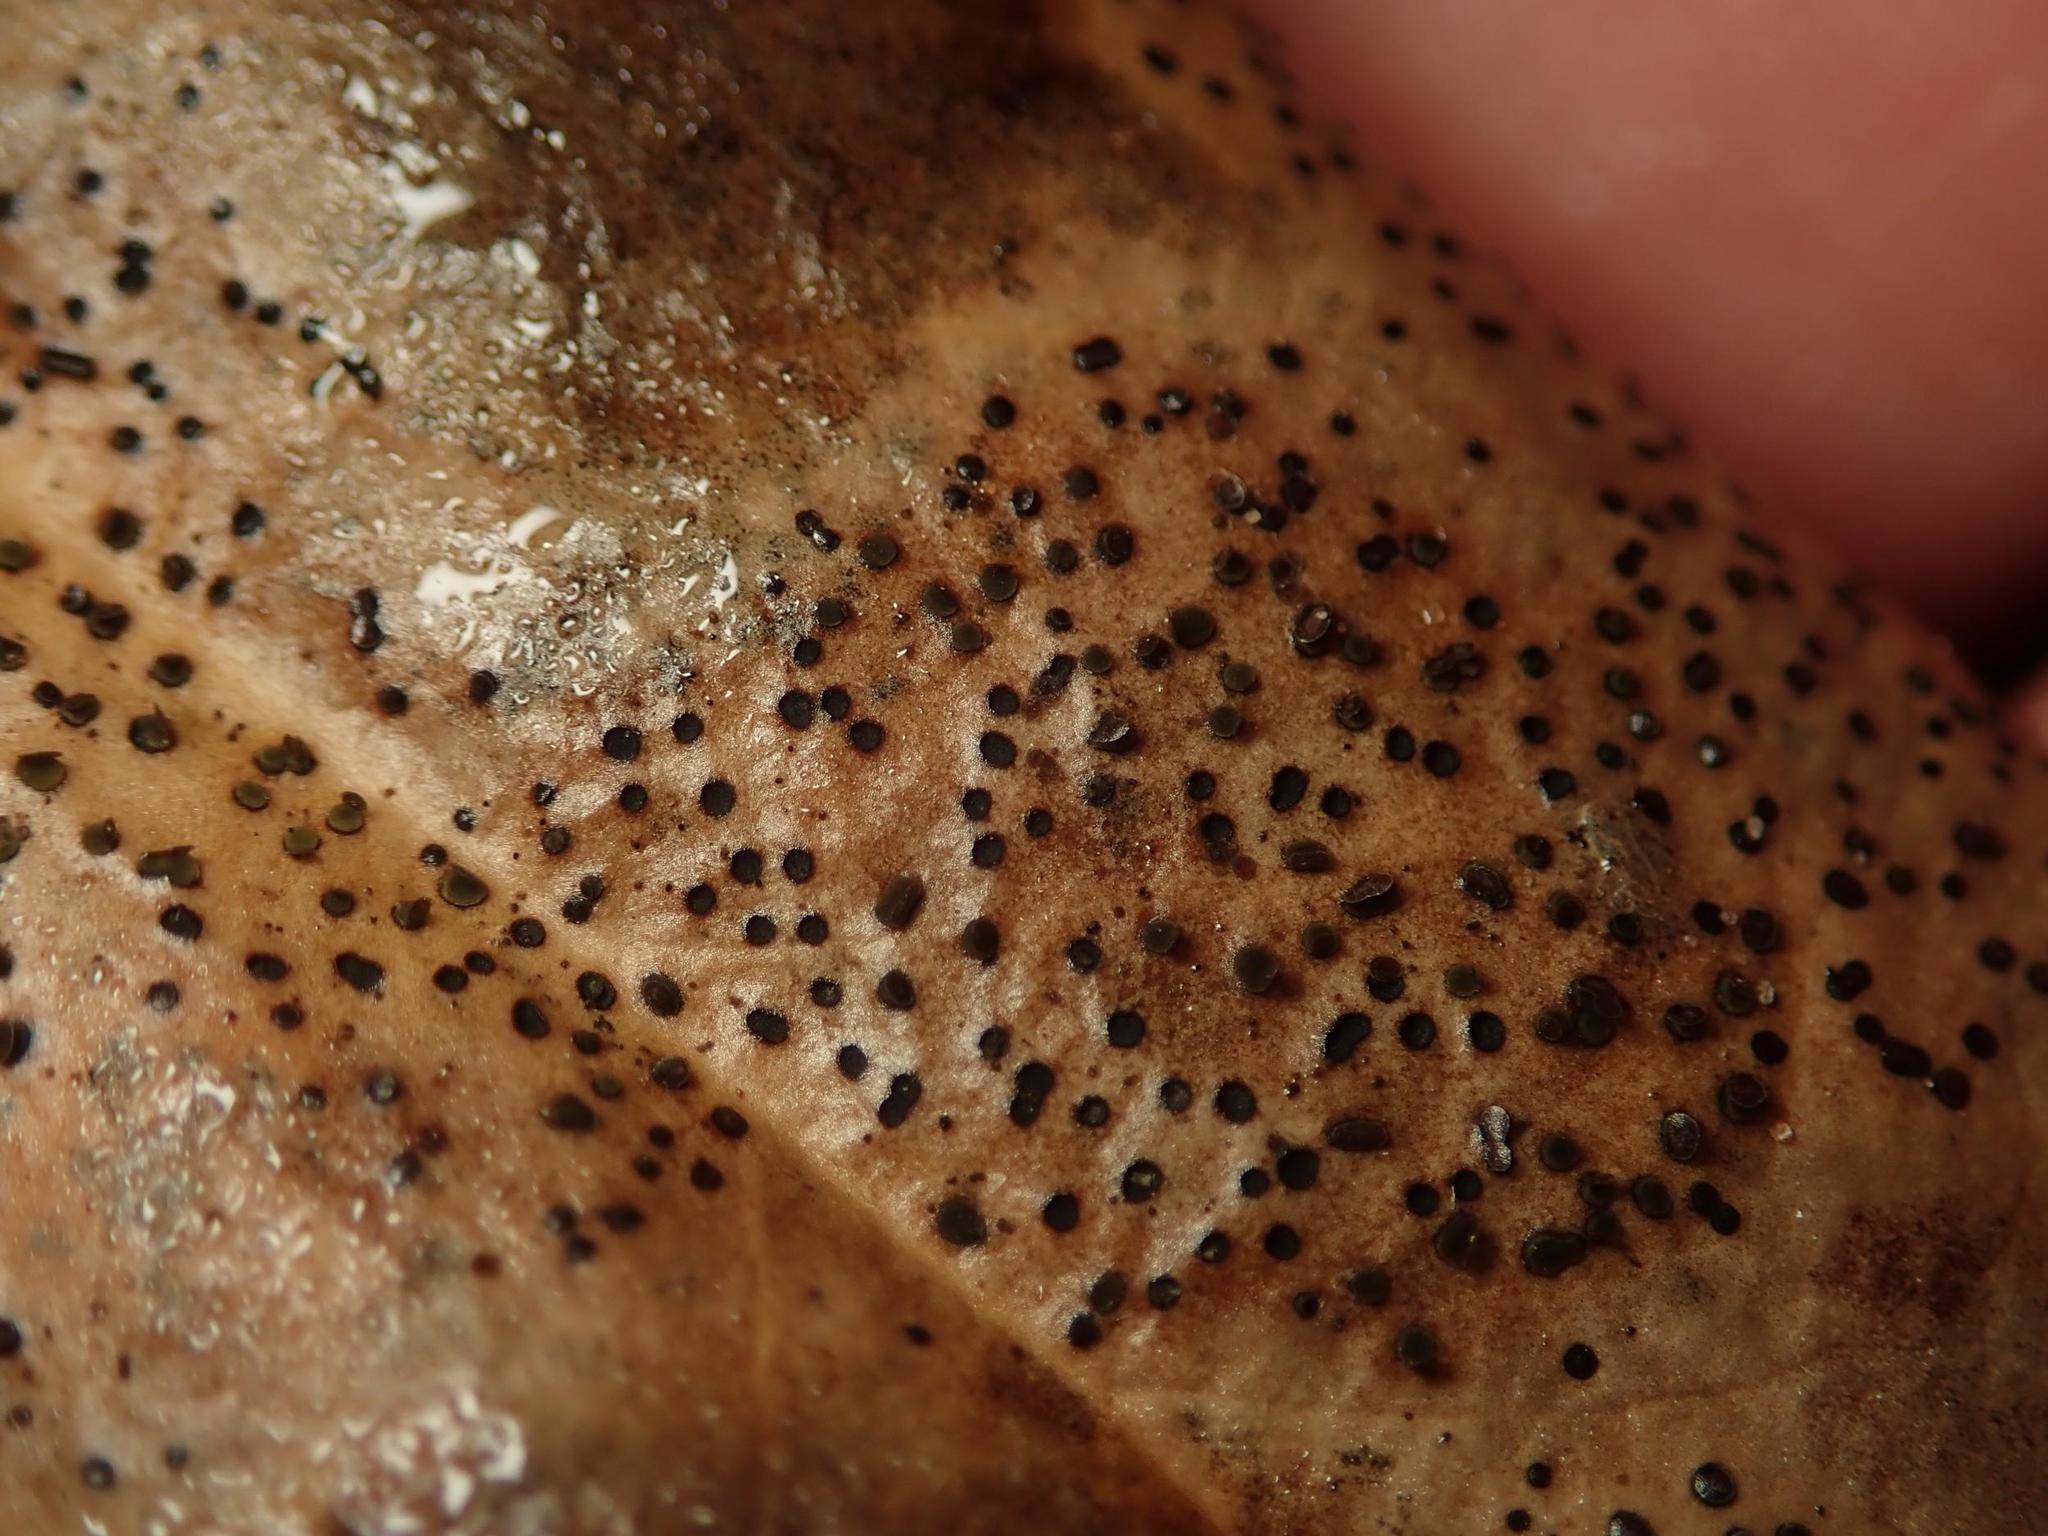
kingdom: Fungi
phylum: Ascomycota
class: Leotiomycetes
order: Helotiales
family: Cenangiaceae
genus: Trochila
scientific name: Trochila ilicina
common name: Holly speckle
